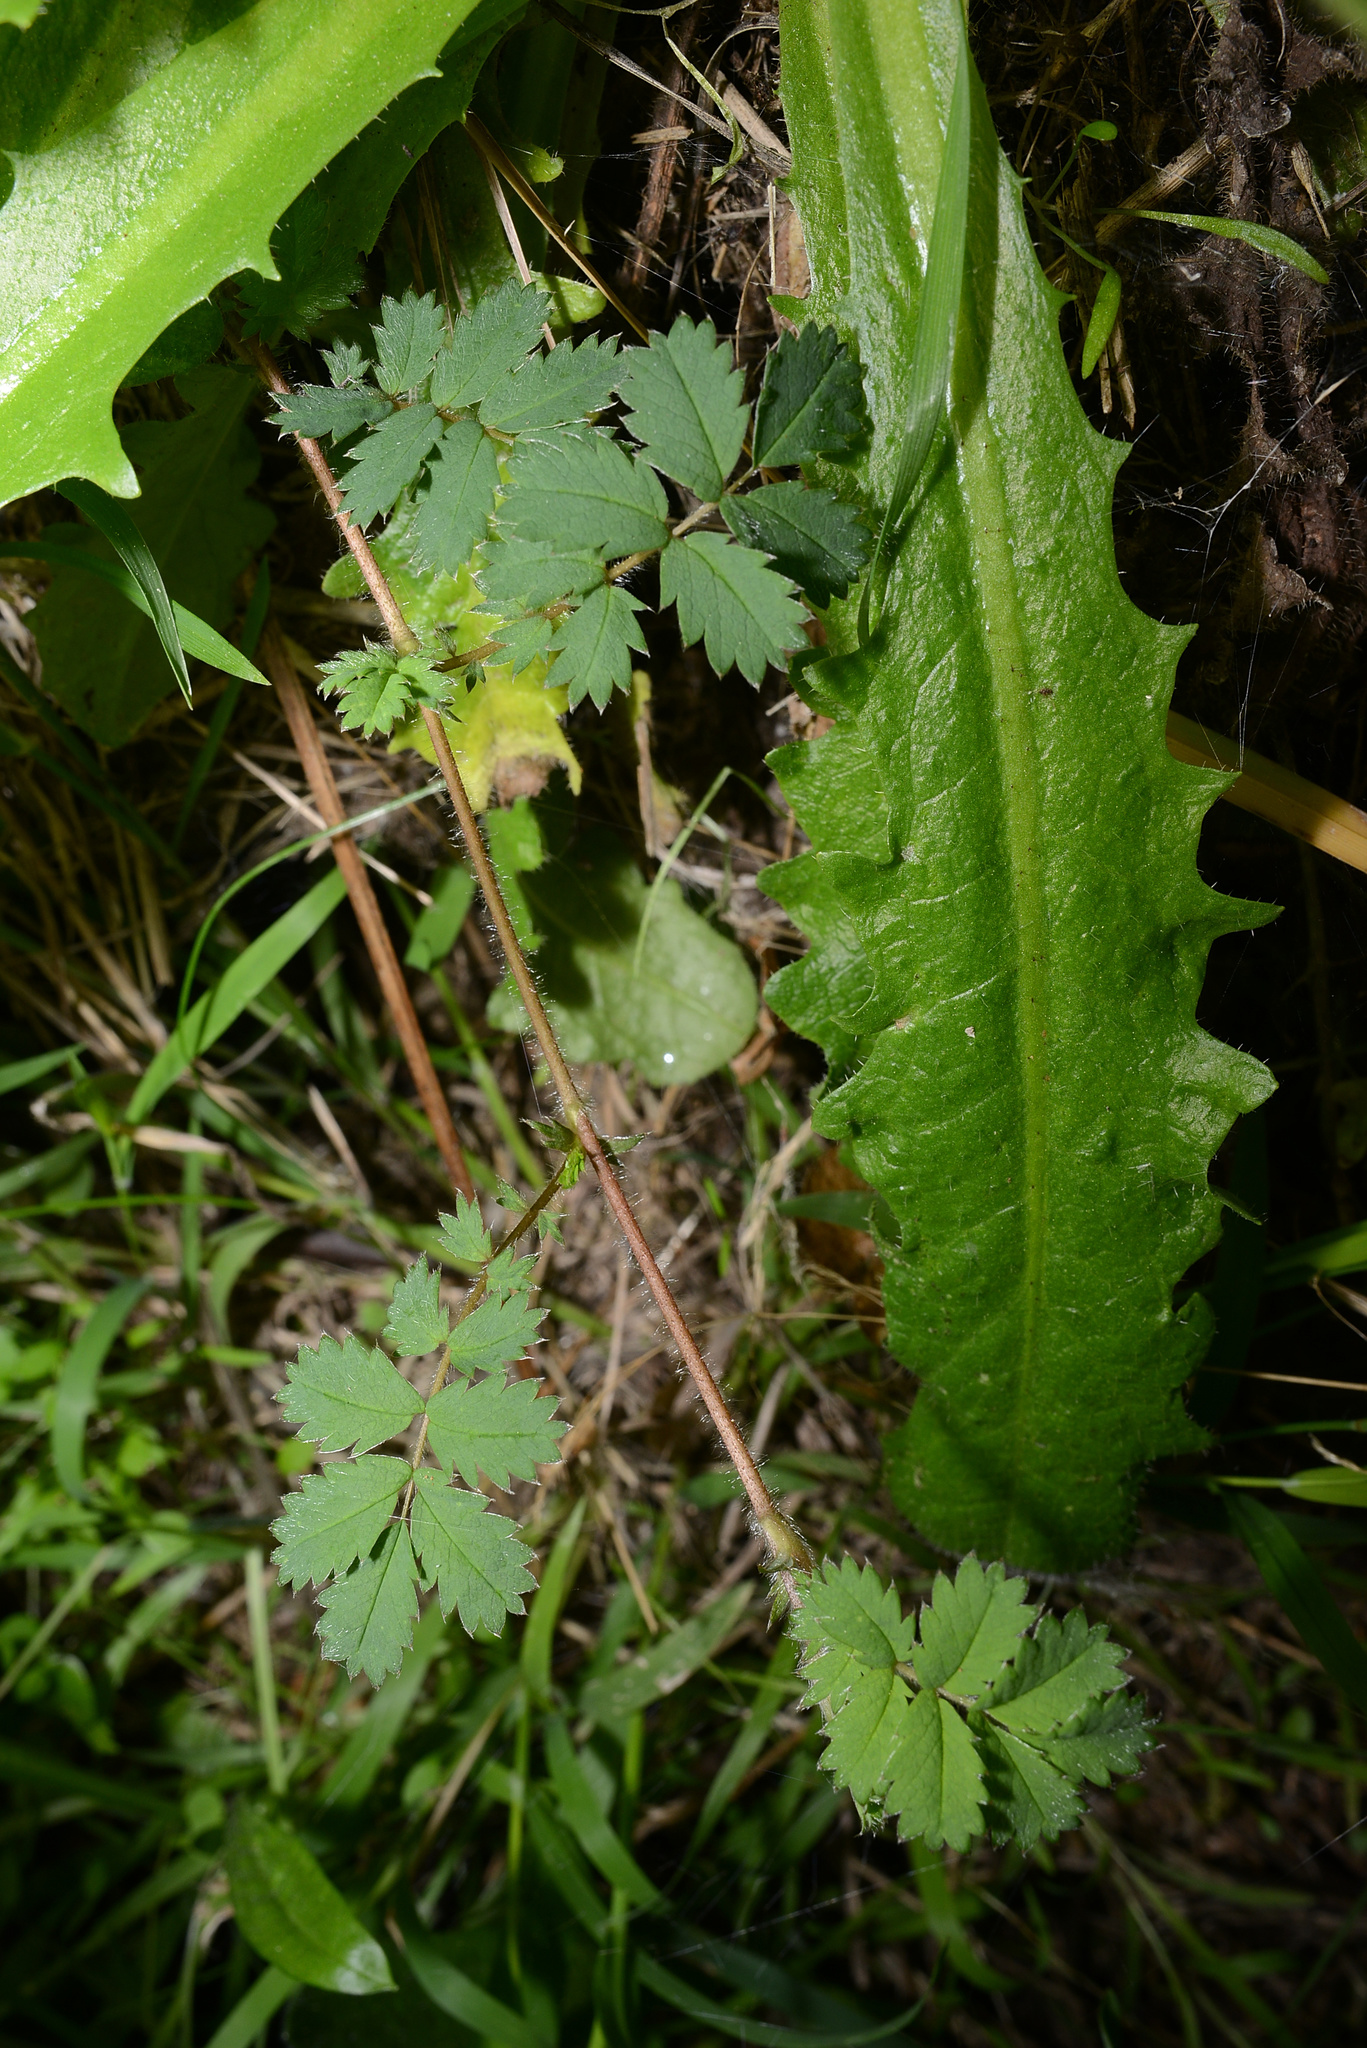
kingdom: Plantae
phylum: Tracheophyta
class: Magnoliopsida
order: Rosales
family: Rosaceae
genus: Acaena
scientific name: Acaena anserinifolia
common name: Bronze pirri-pirri-bur
